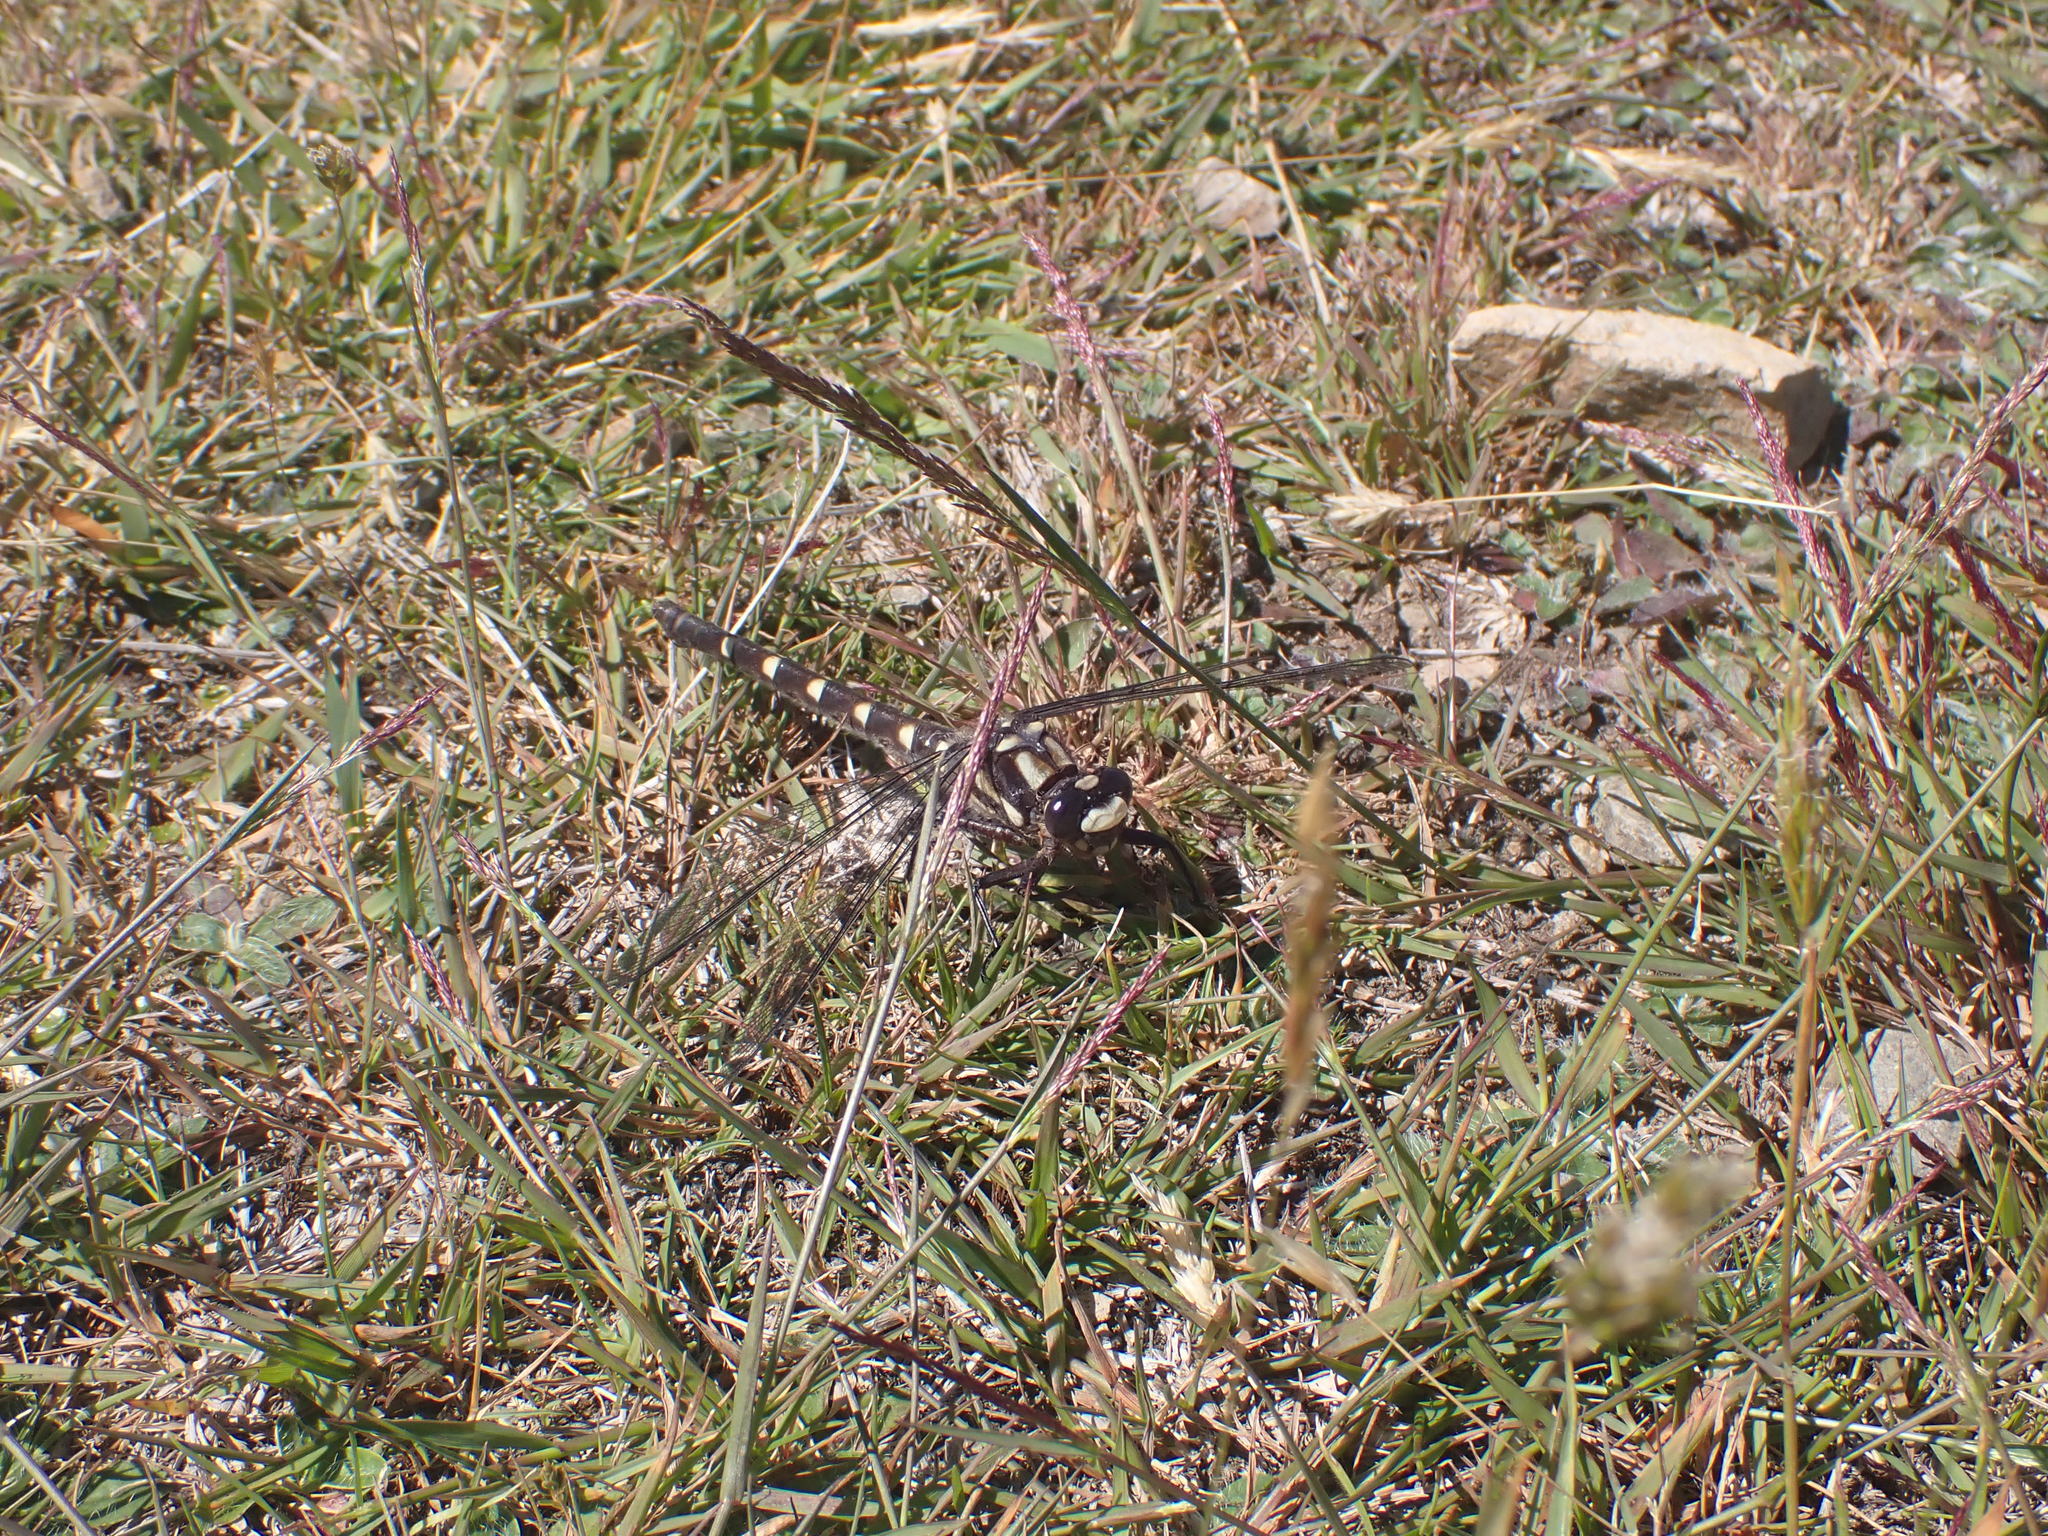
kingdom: Animalia
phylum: Arthropoda
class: Insecta
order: Odonata
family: Petaluridae
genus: Uropetala
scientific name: Uropetala chiltoni
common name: Mountain giant dragonfly
